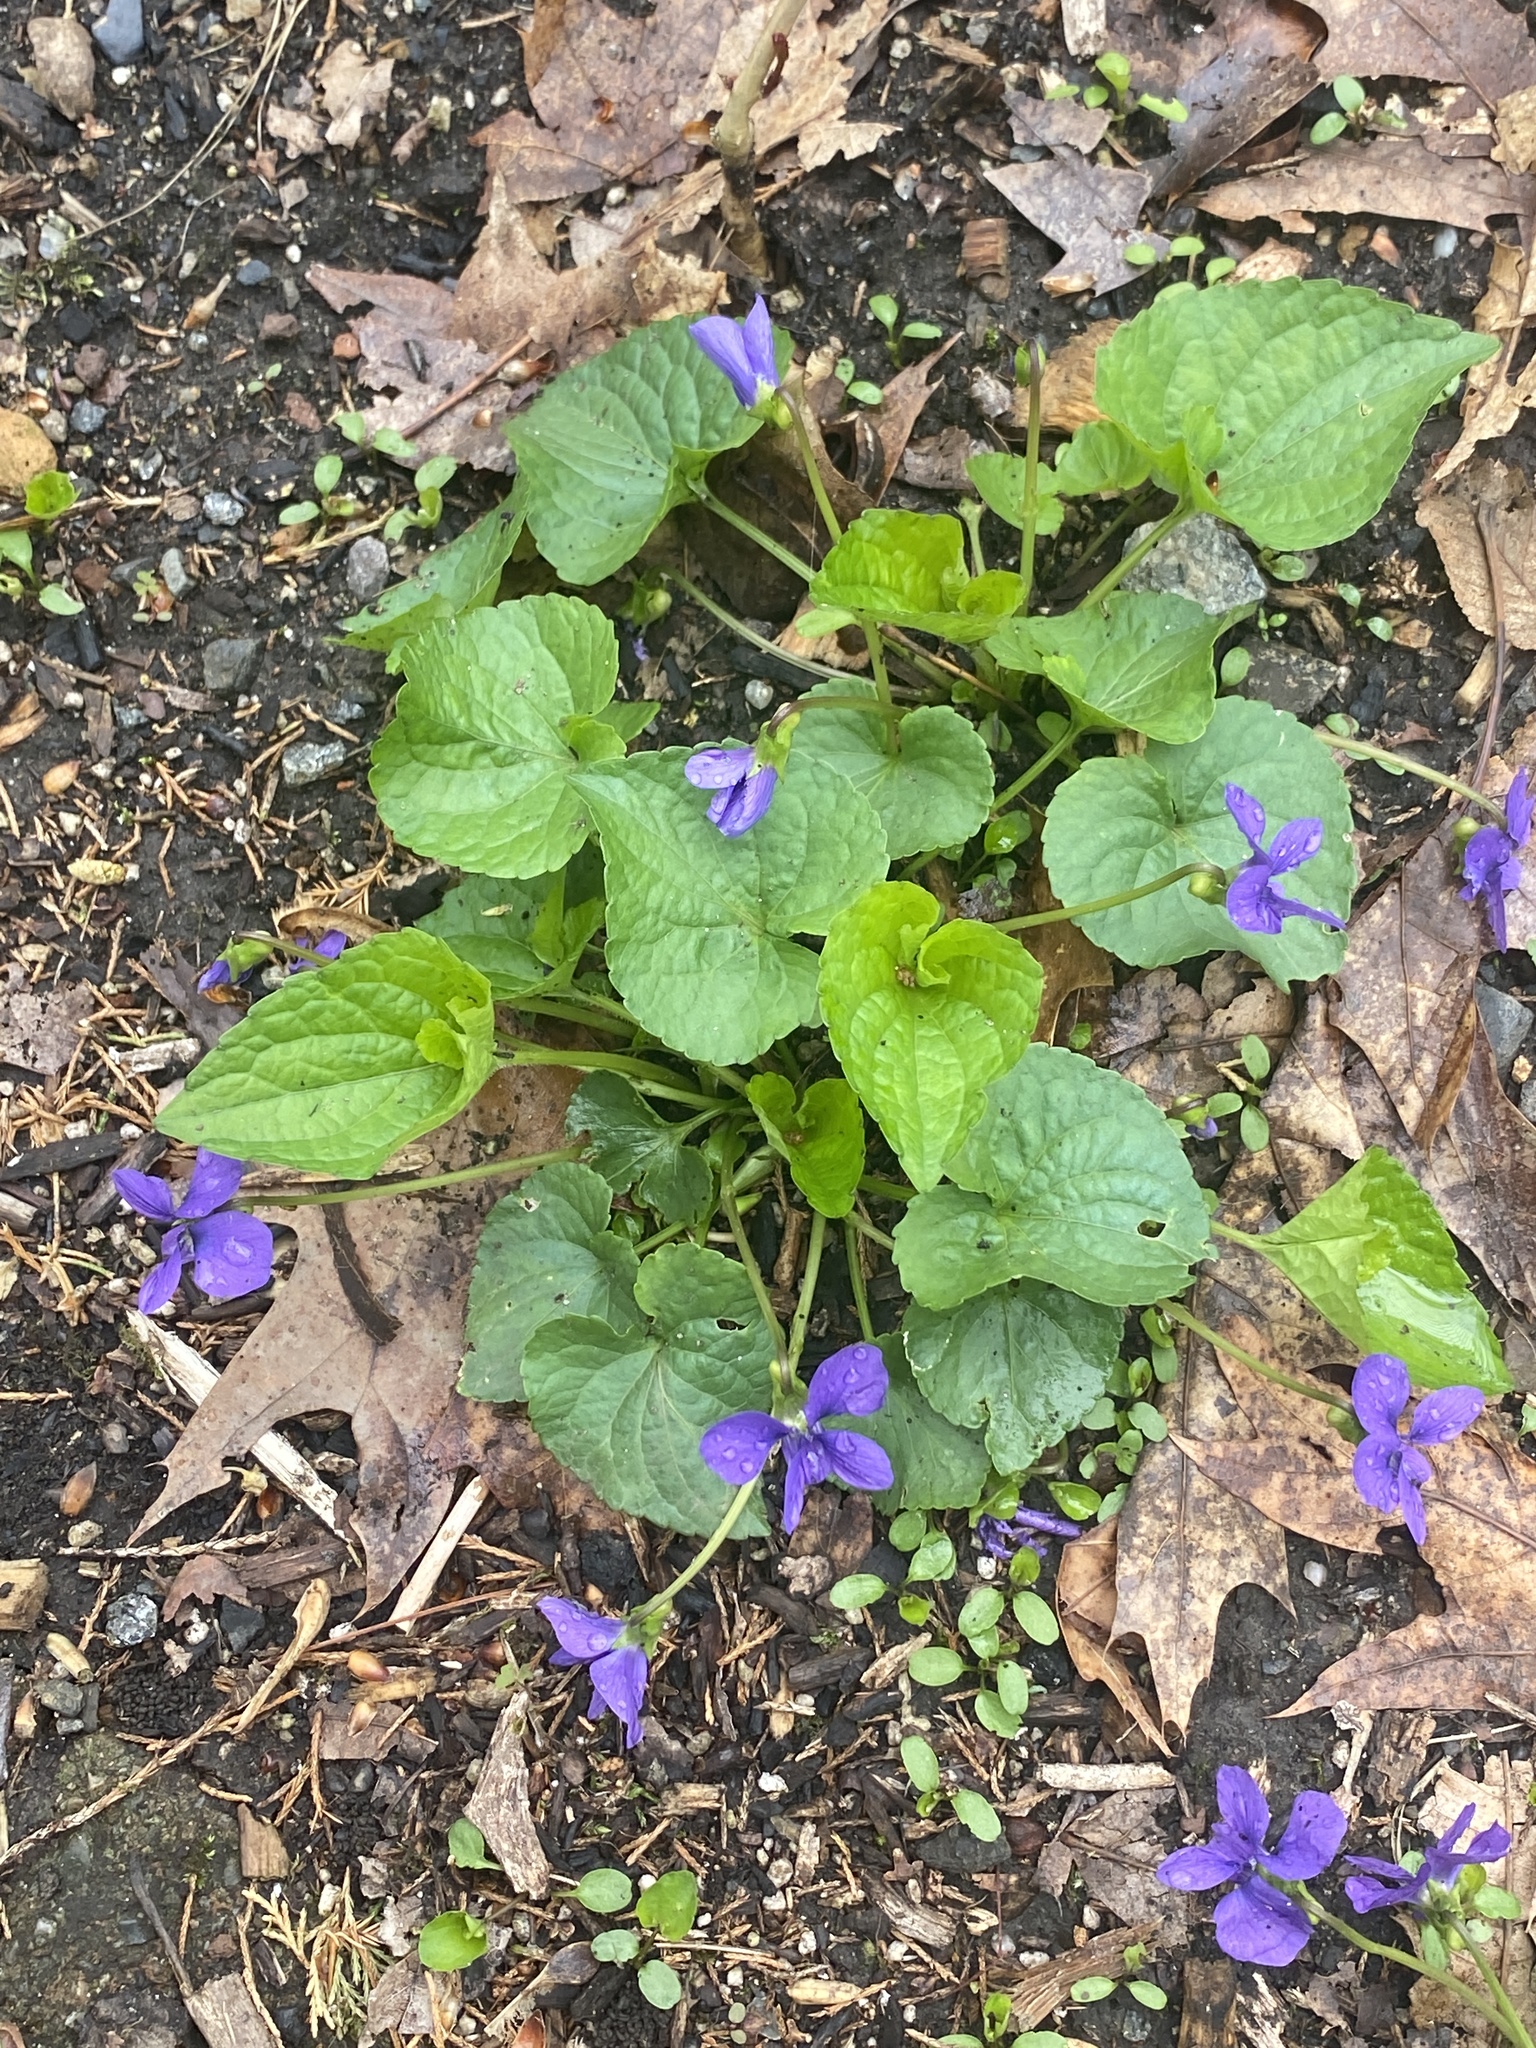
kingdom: Plantae
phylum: Tracheophyta
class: Magnoliopsida
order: Malpighiales
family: Violaceae
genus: Viola
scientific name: Viola sororia
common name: Dooryard violet
